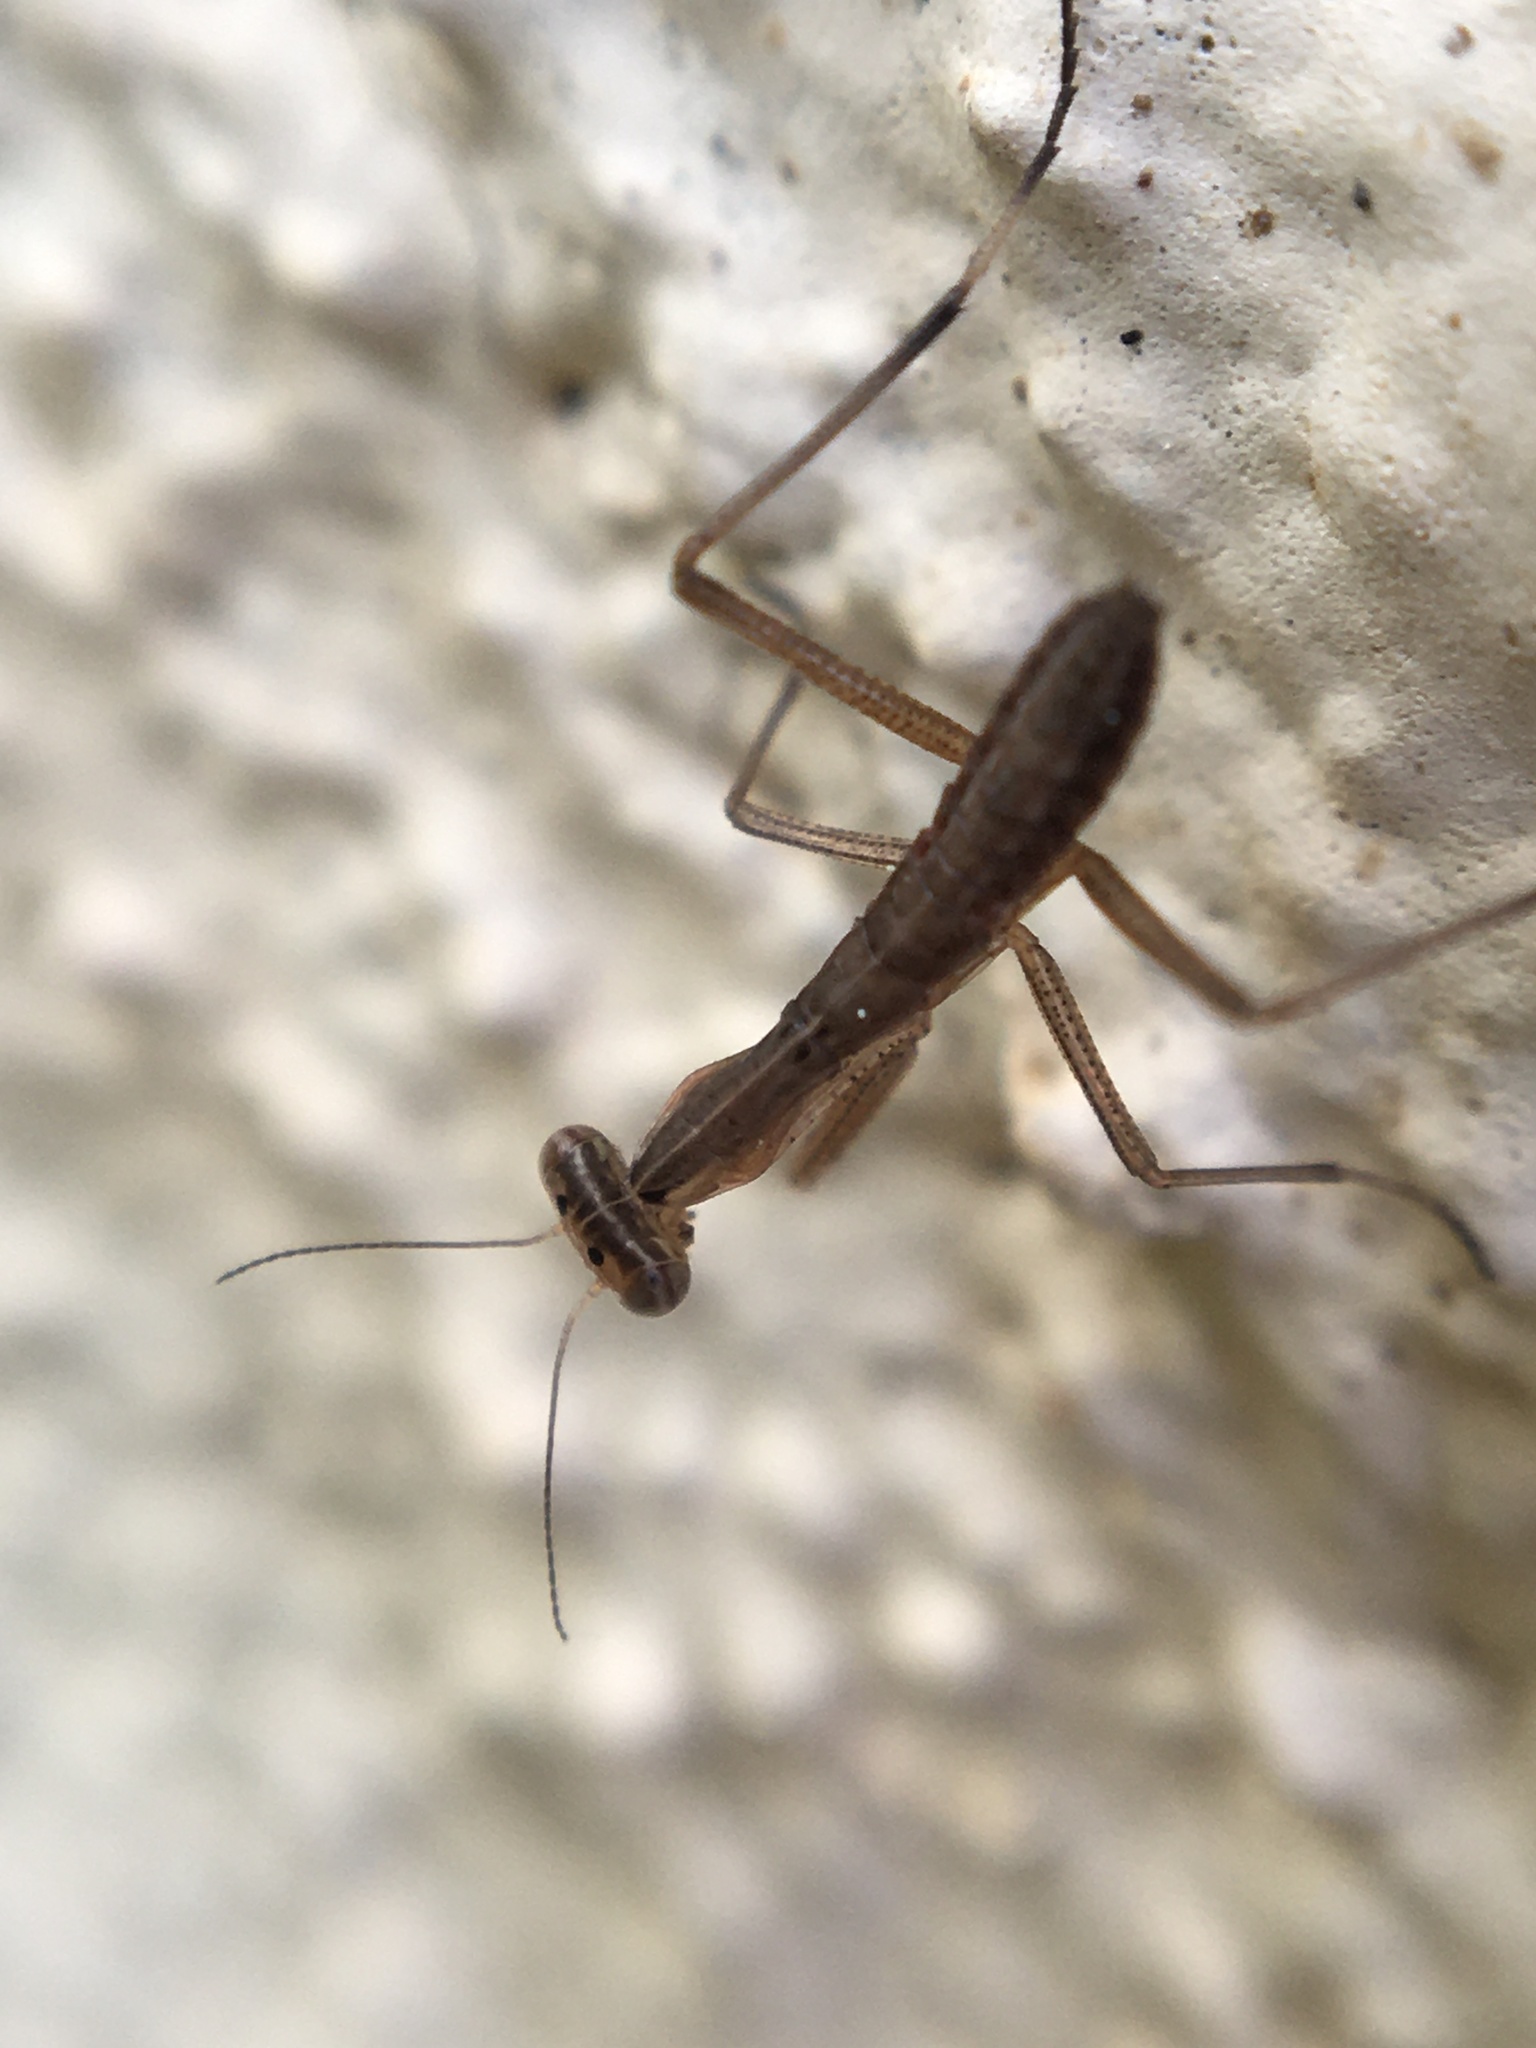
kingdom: Animalia
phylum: Arthropoda
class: Insecta
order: Mantodea
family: Mantidae
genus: Mantis
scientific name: Mantis religiosa
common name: Praying mantis
